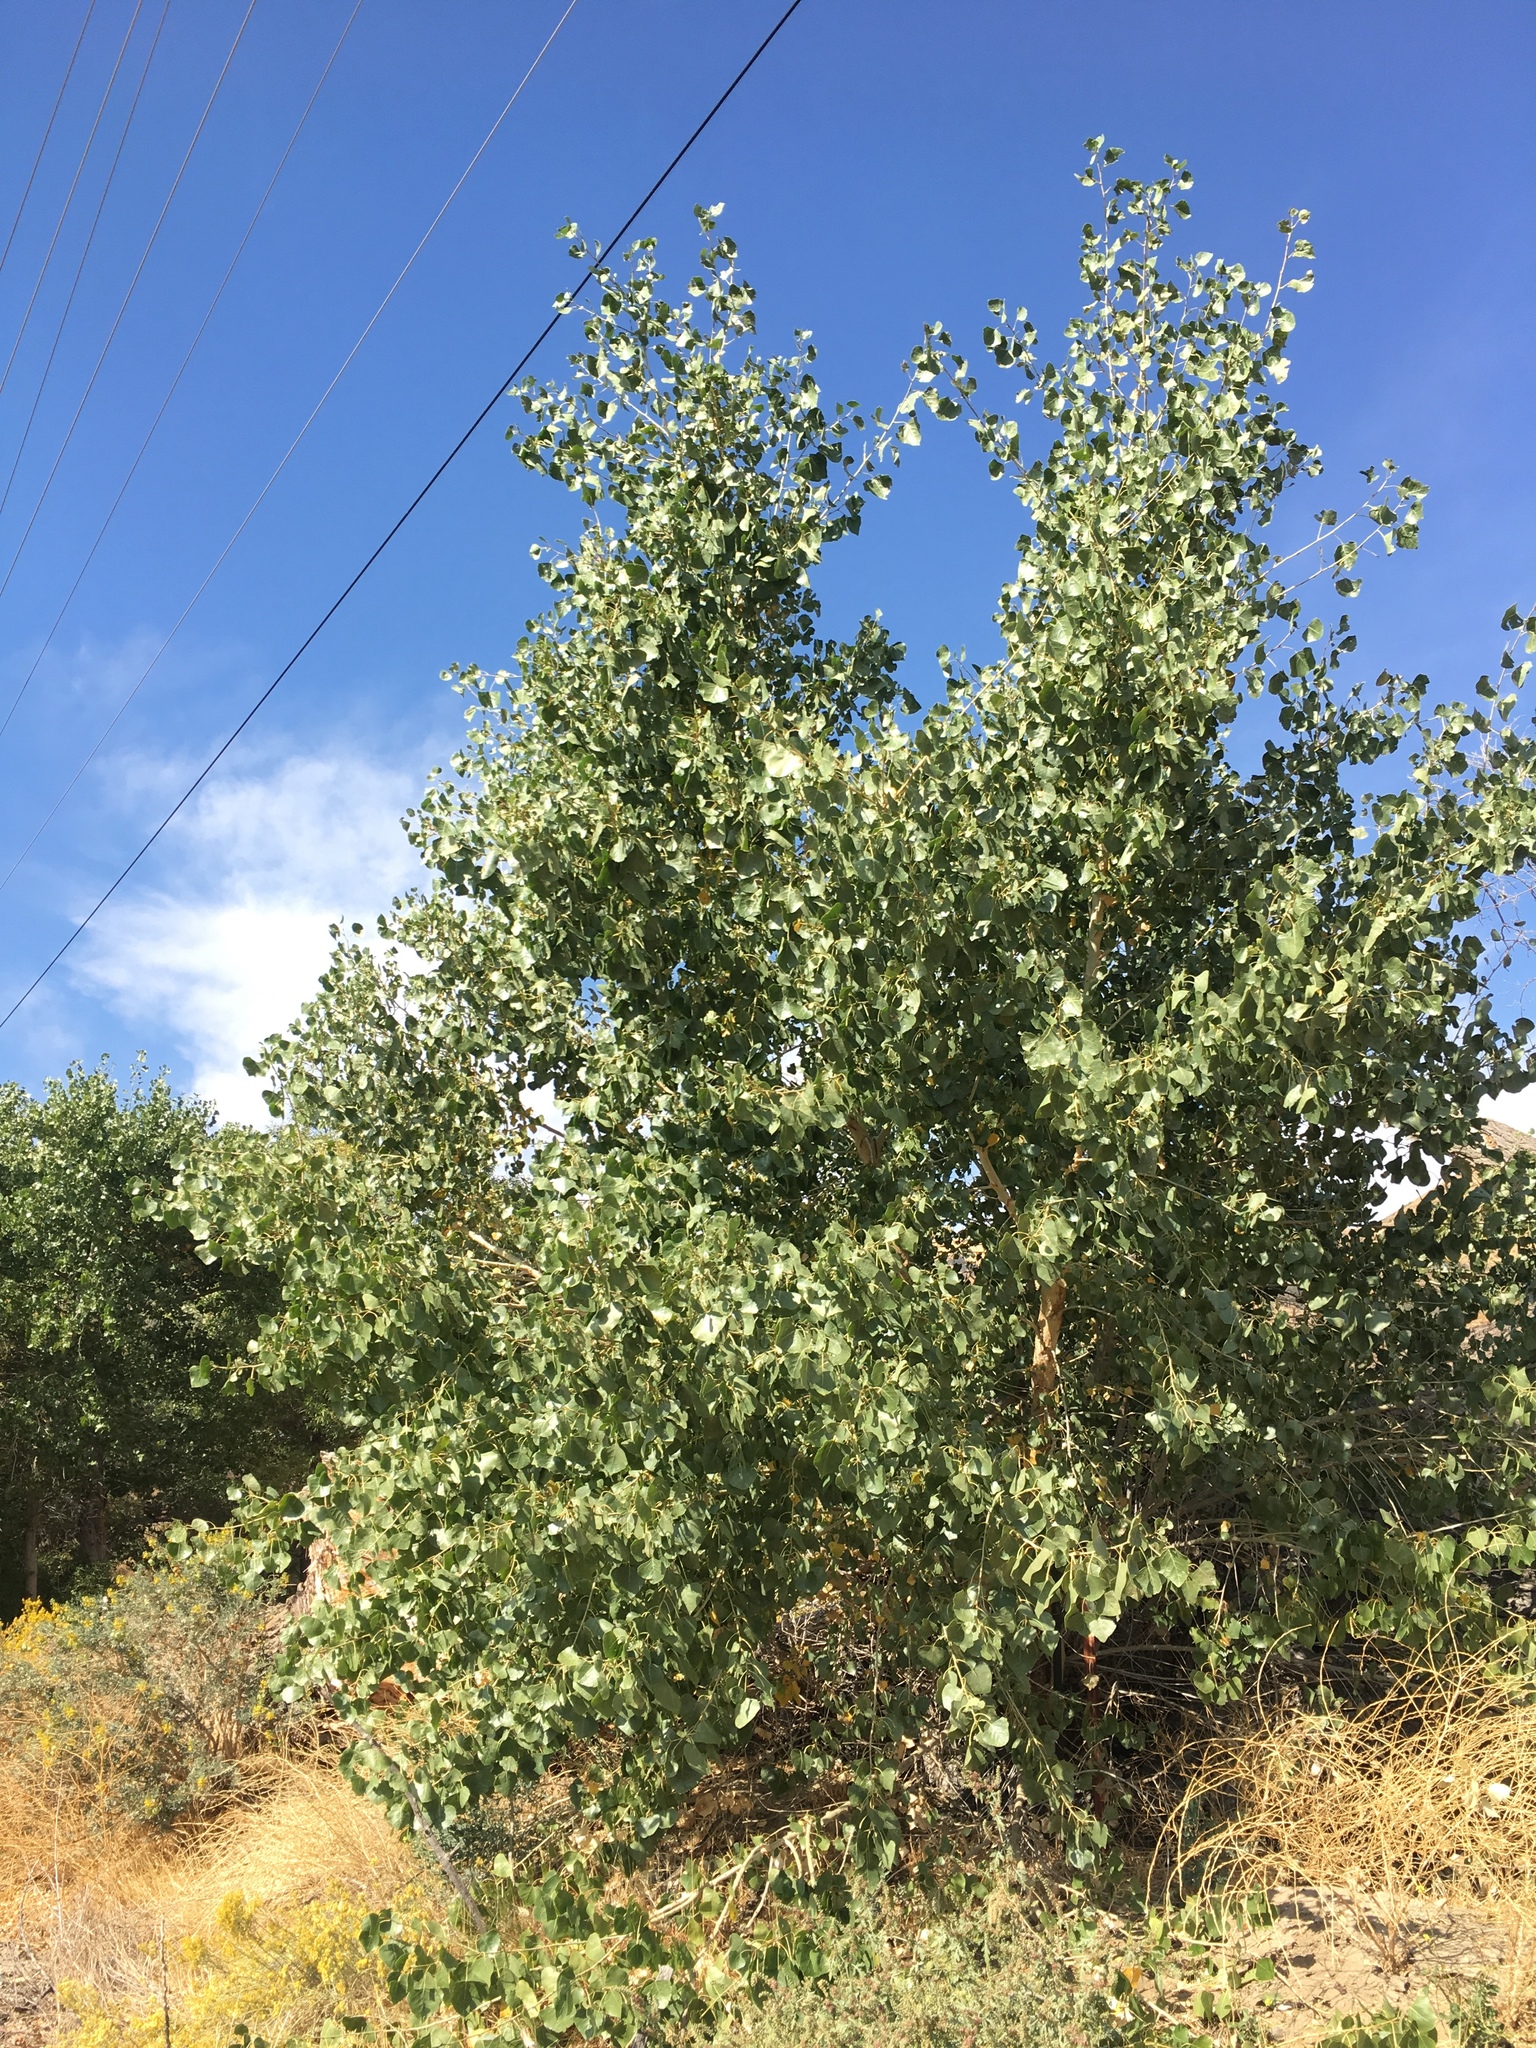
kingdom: Plantae
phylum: Tracheophyta
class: Magnoliopsida
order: Malpighiales
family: Salicaceae
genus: Populus
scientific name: Populus fremontii
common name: Fremont's cottonwood
